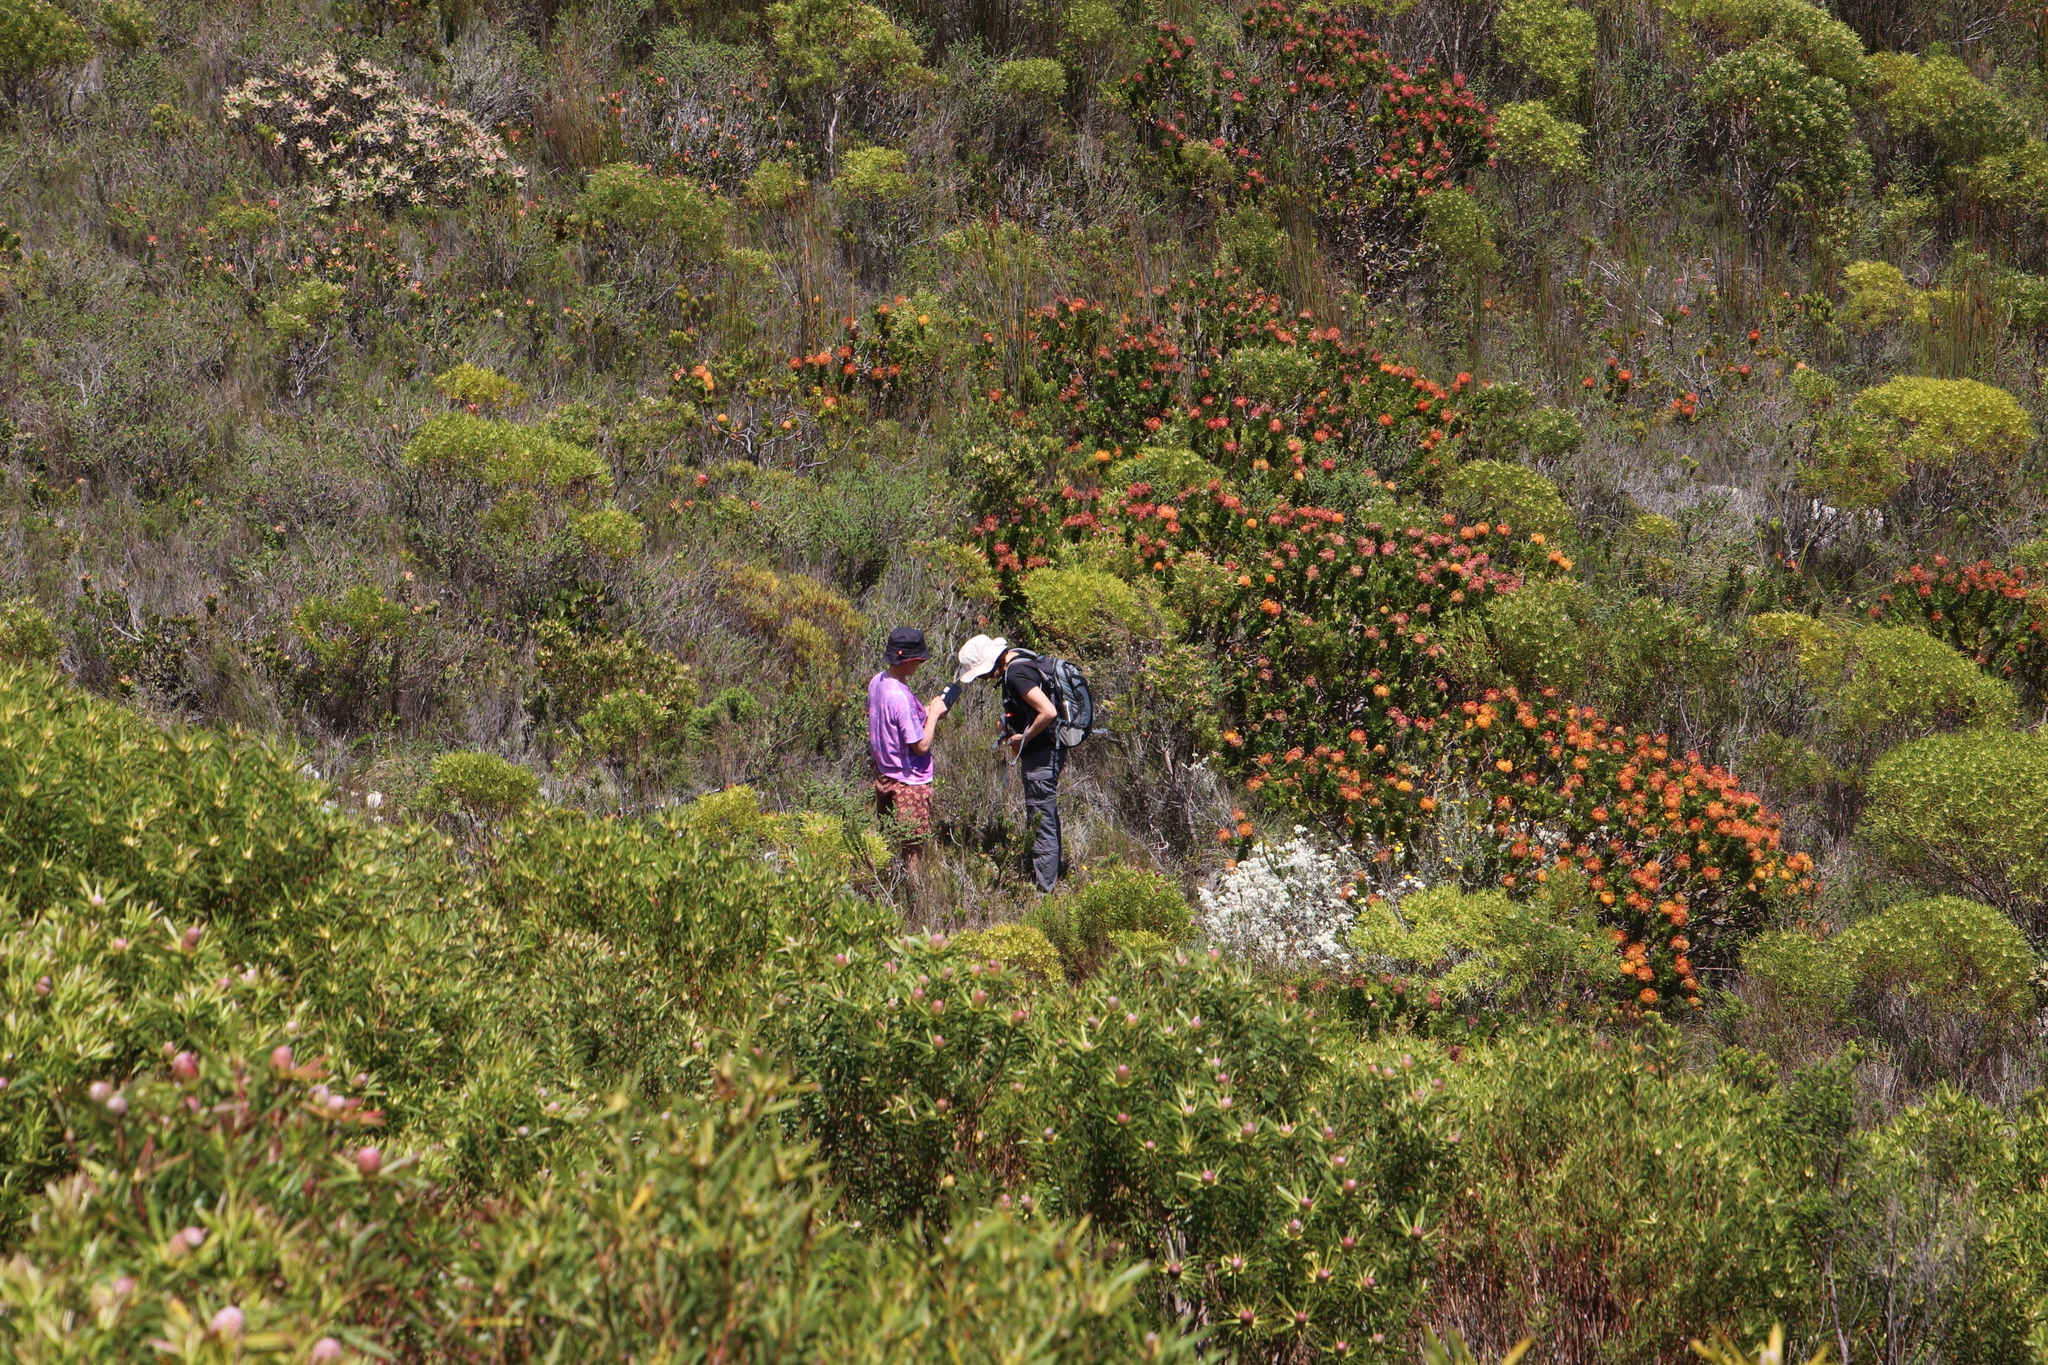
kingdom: Plantae
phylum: Tracheophyta
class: Magnoliopsida
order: Proteales
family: Proteaceae
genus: Leucospermum
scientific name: Leucospermum patersonii
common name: False tree pincushion
